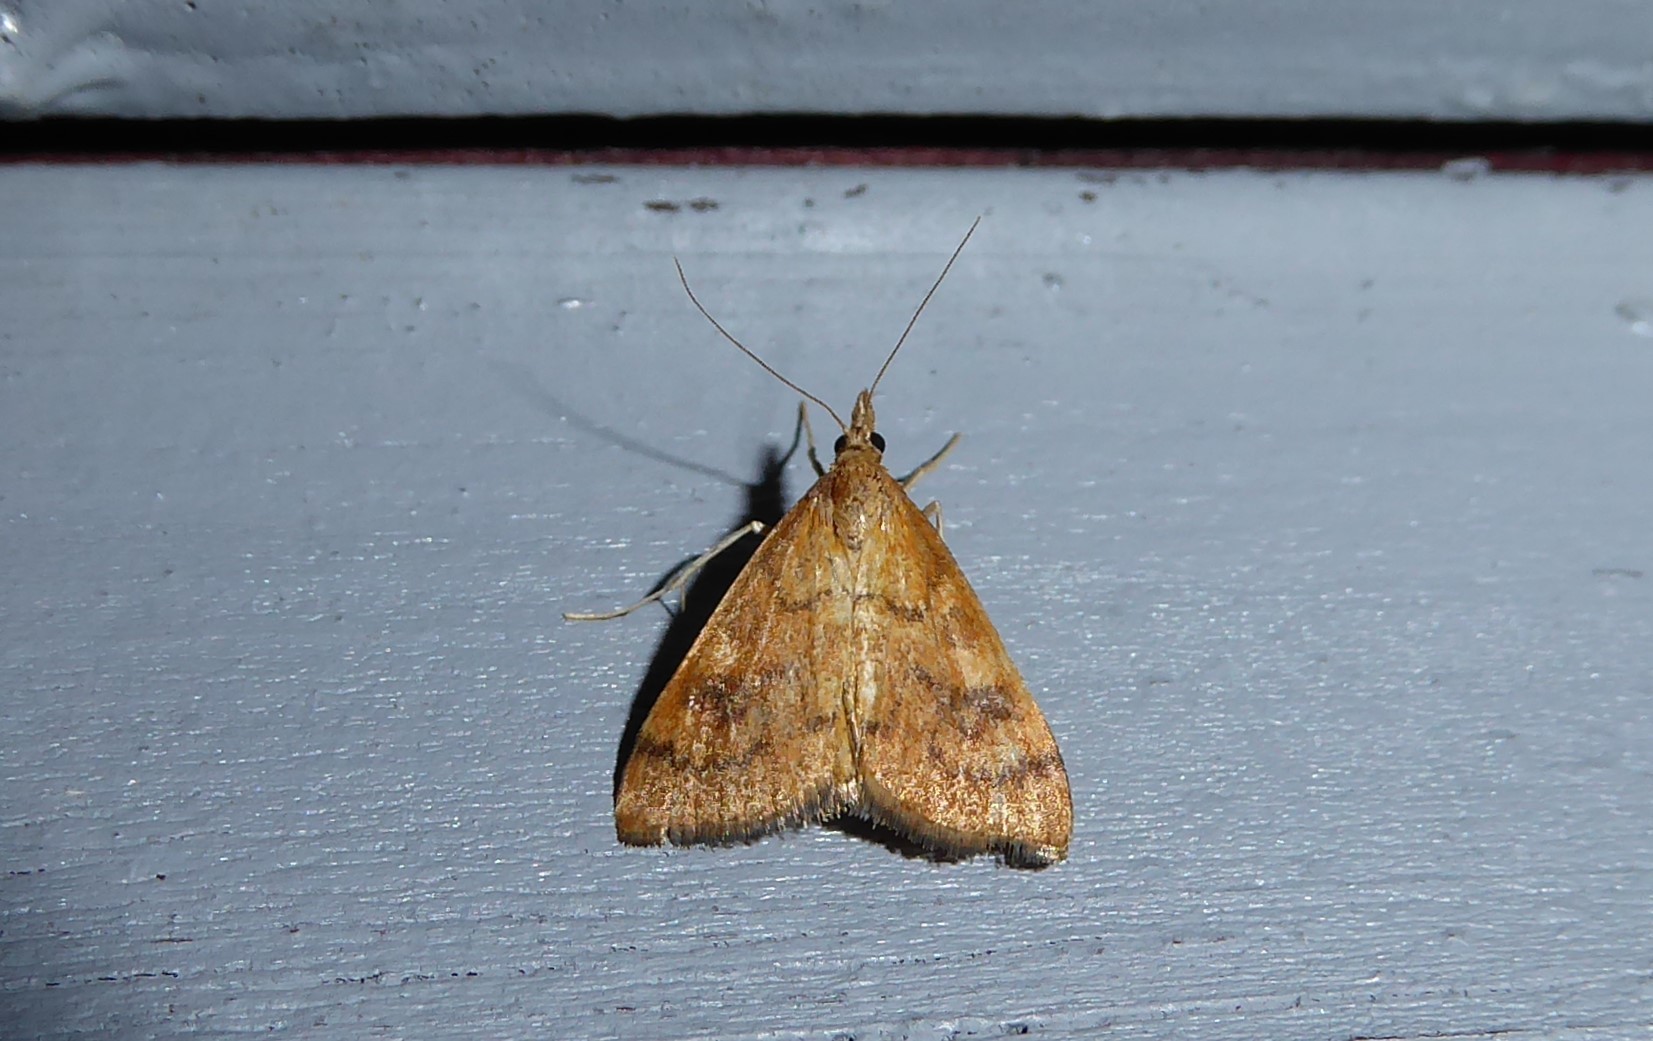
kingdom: Animalia
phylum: Arthropoda
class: Insecta
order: Lepidoptera
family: Crambidae
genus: Udea
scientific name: Udea Mnesictena flavidalis
